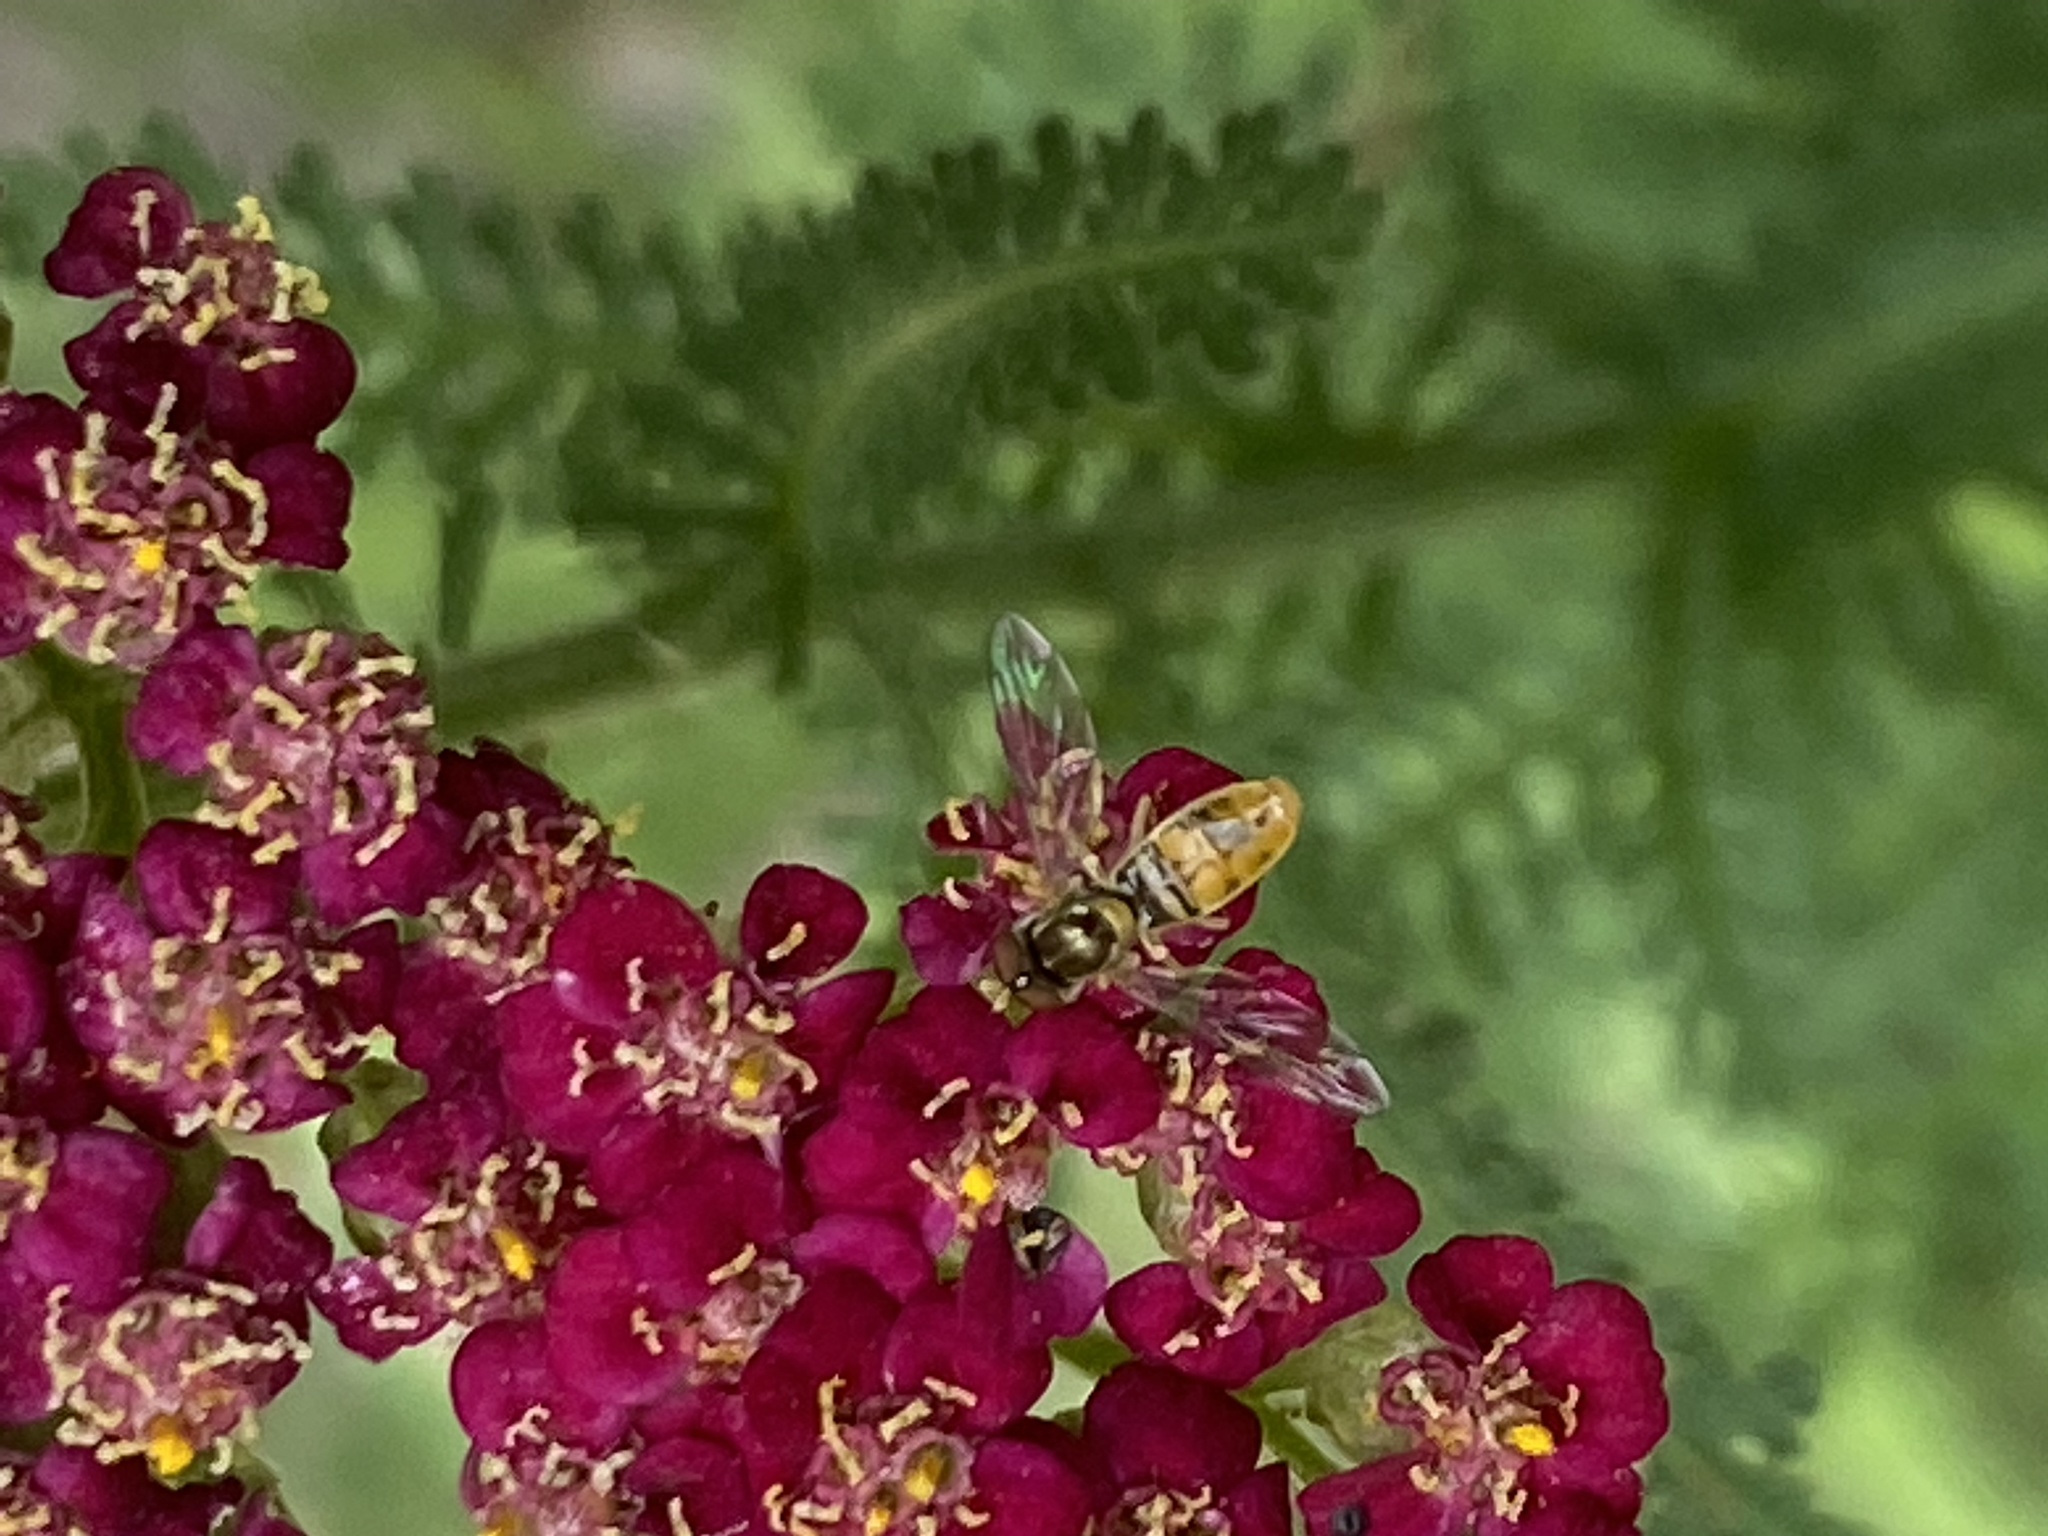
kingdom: Animalia
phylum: Arthropoda
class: Insecta
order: Diptera
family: Syrphidae
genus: Toxomerus
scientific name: Toxomerus marginatus
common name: Syrphid fly
